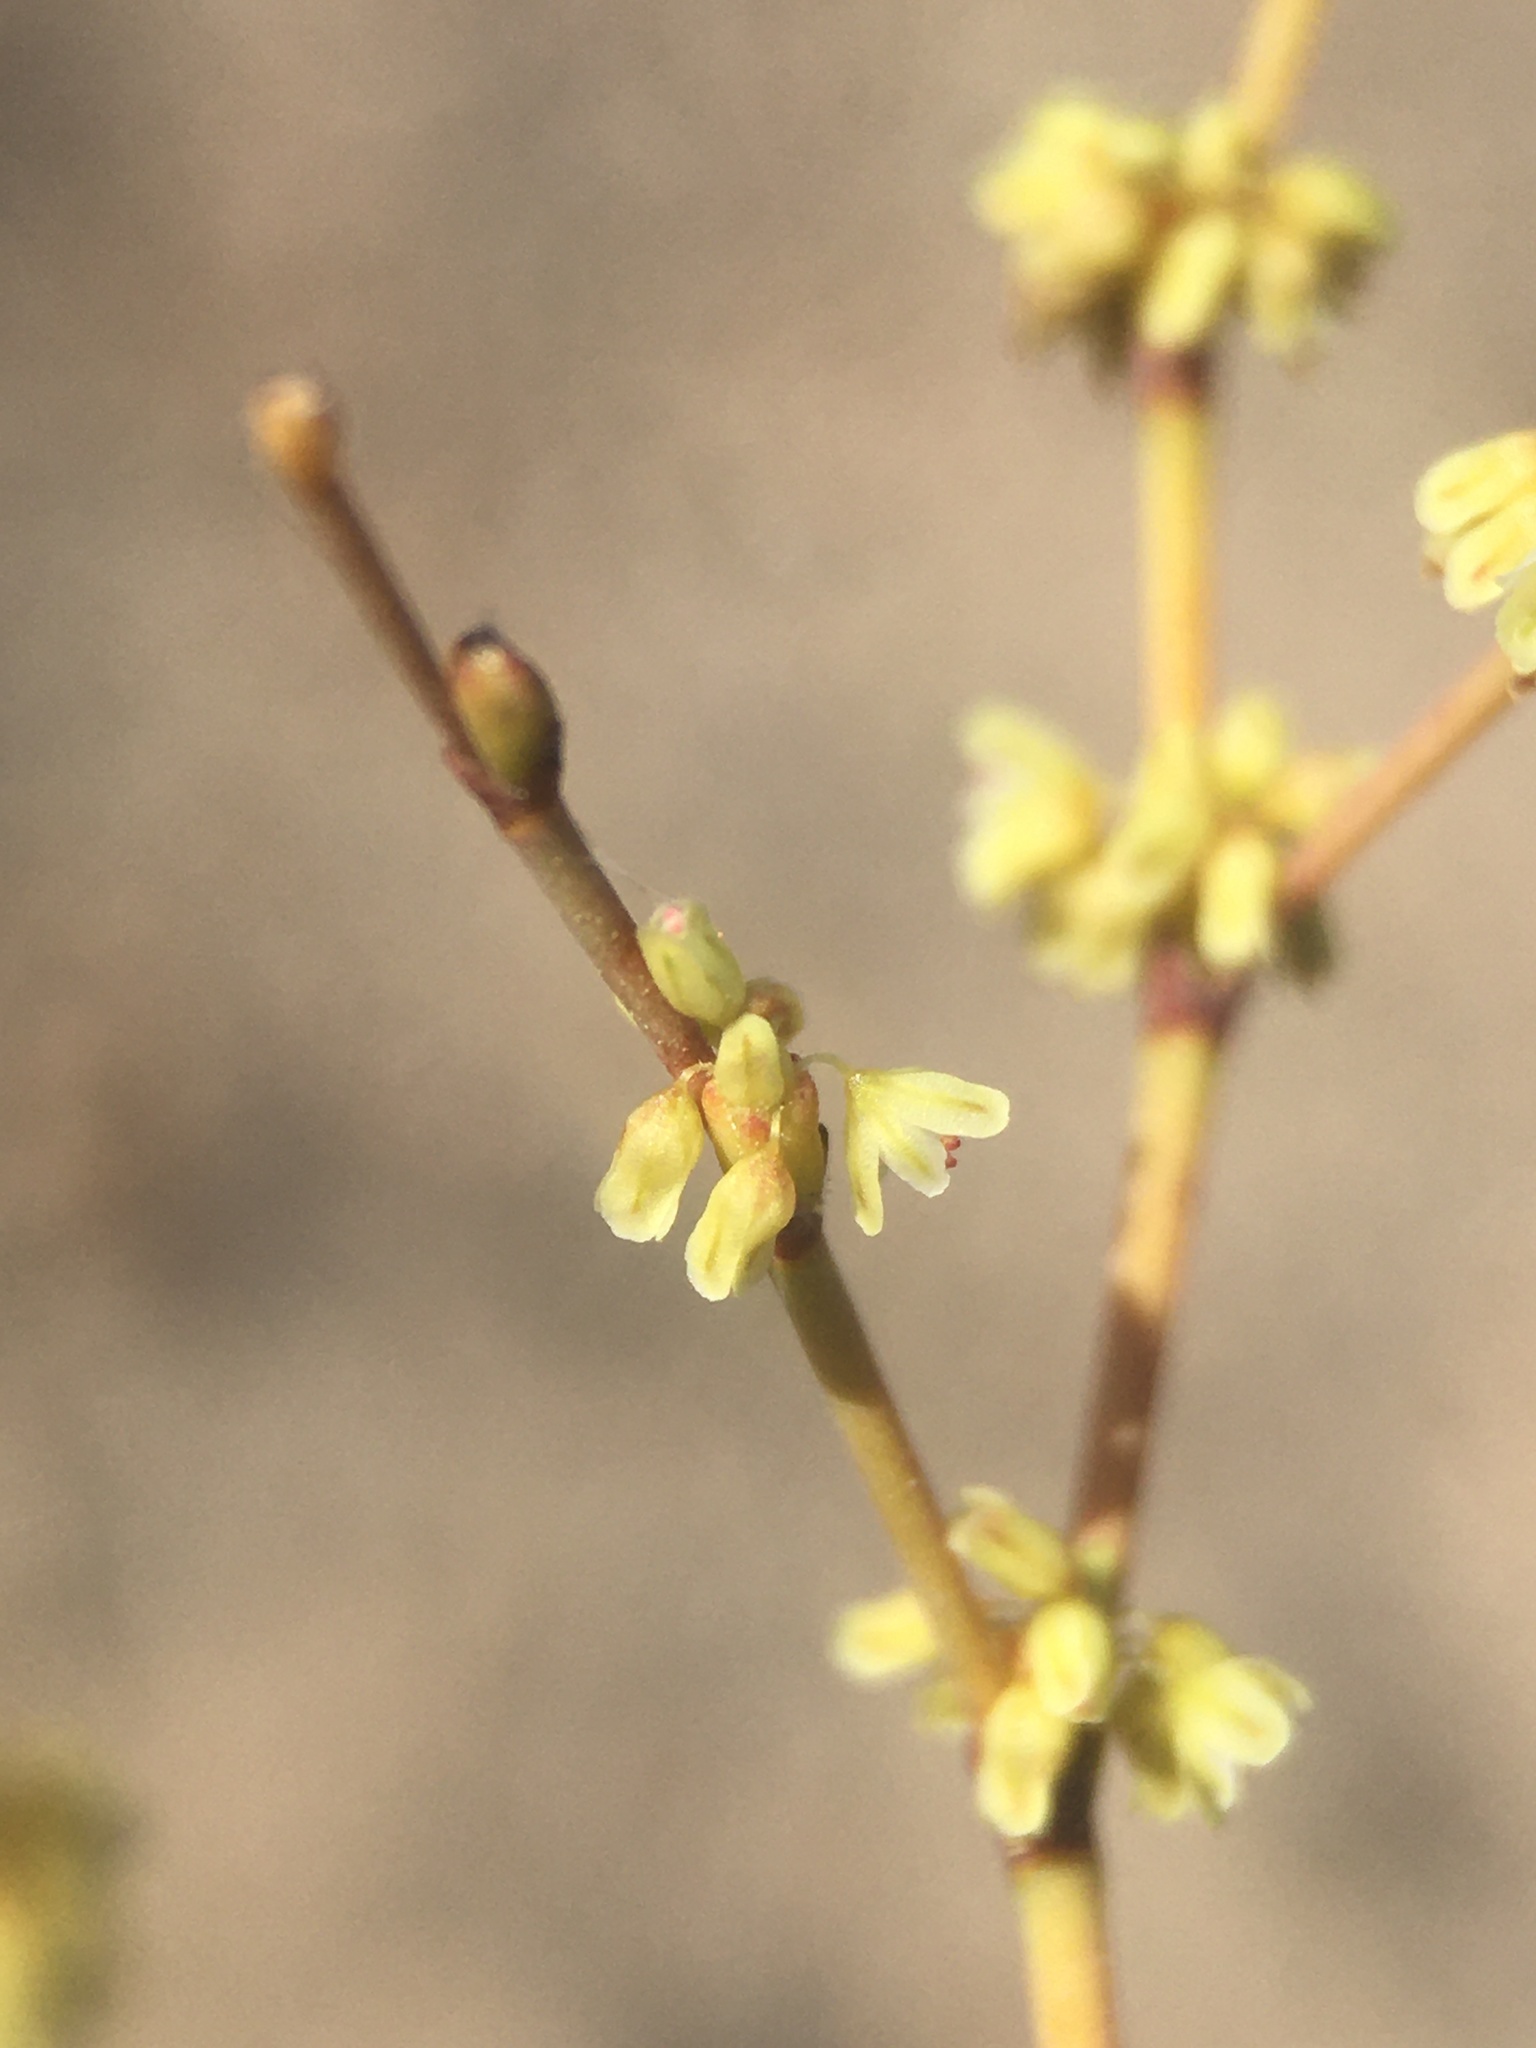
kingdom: Plantae
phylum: Tracheophyta
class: Magnoliopsida
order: Caryophyllales
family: Polygonaceae
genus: Eriogonum
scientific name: Eriogonum brachyanthum
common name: Short-flower wild buckwheat
